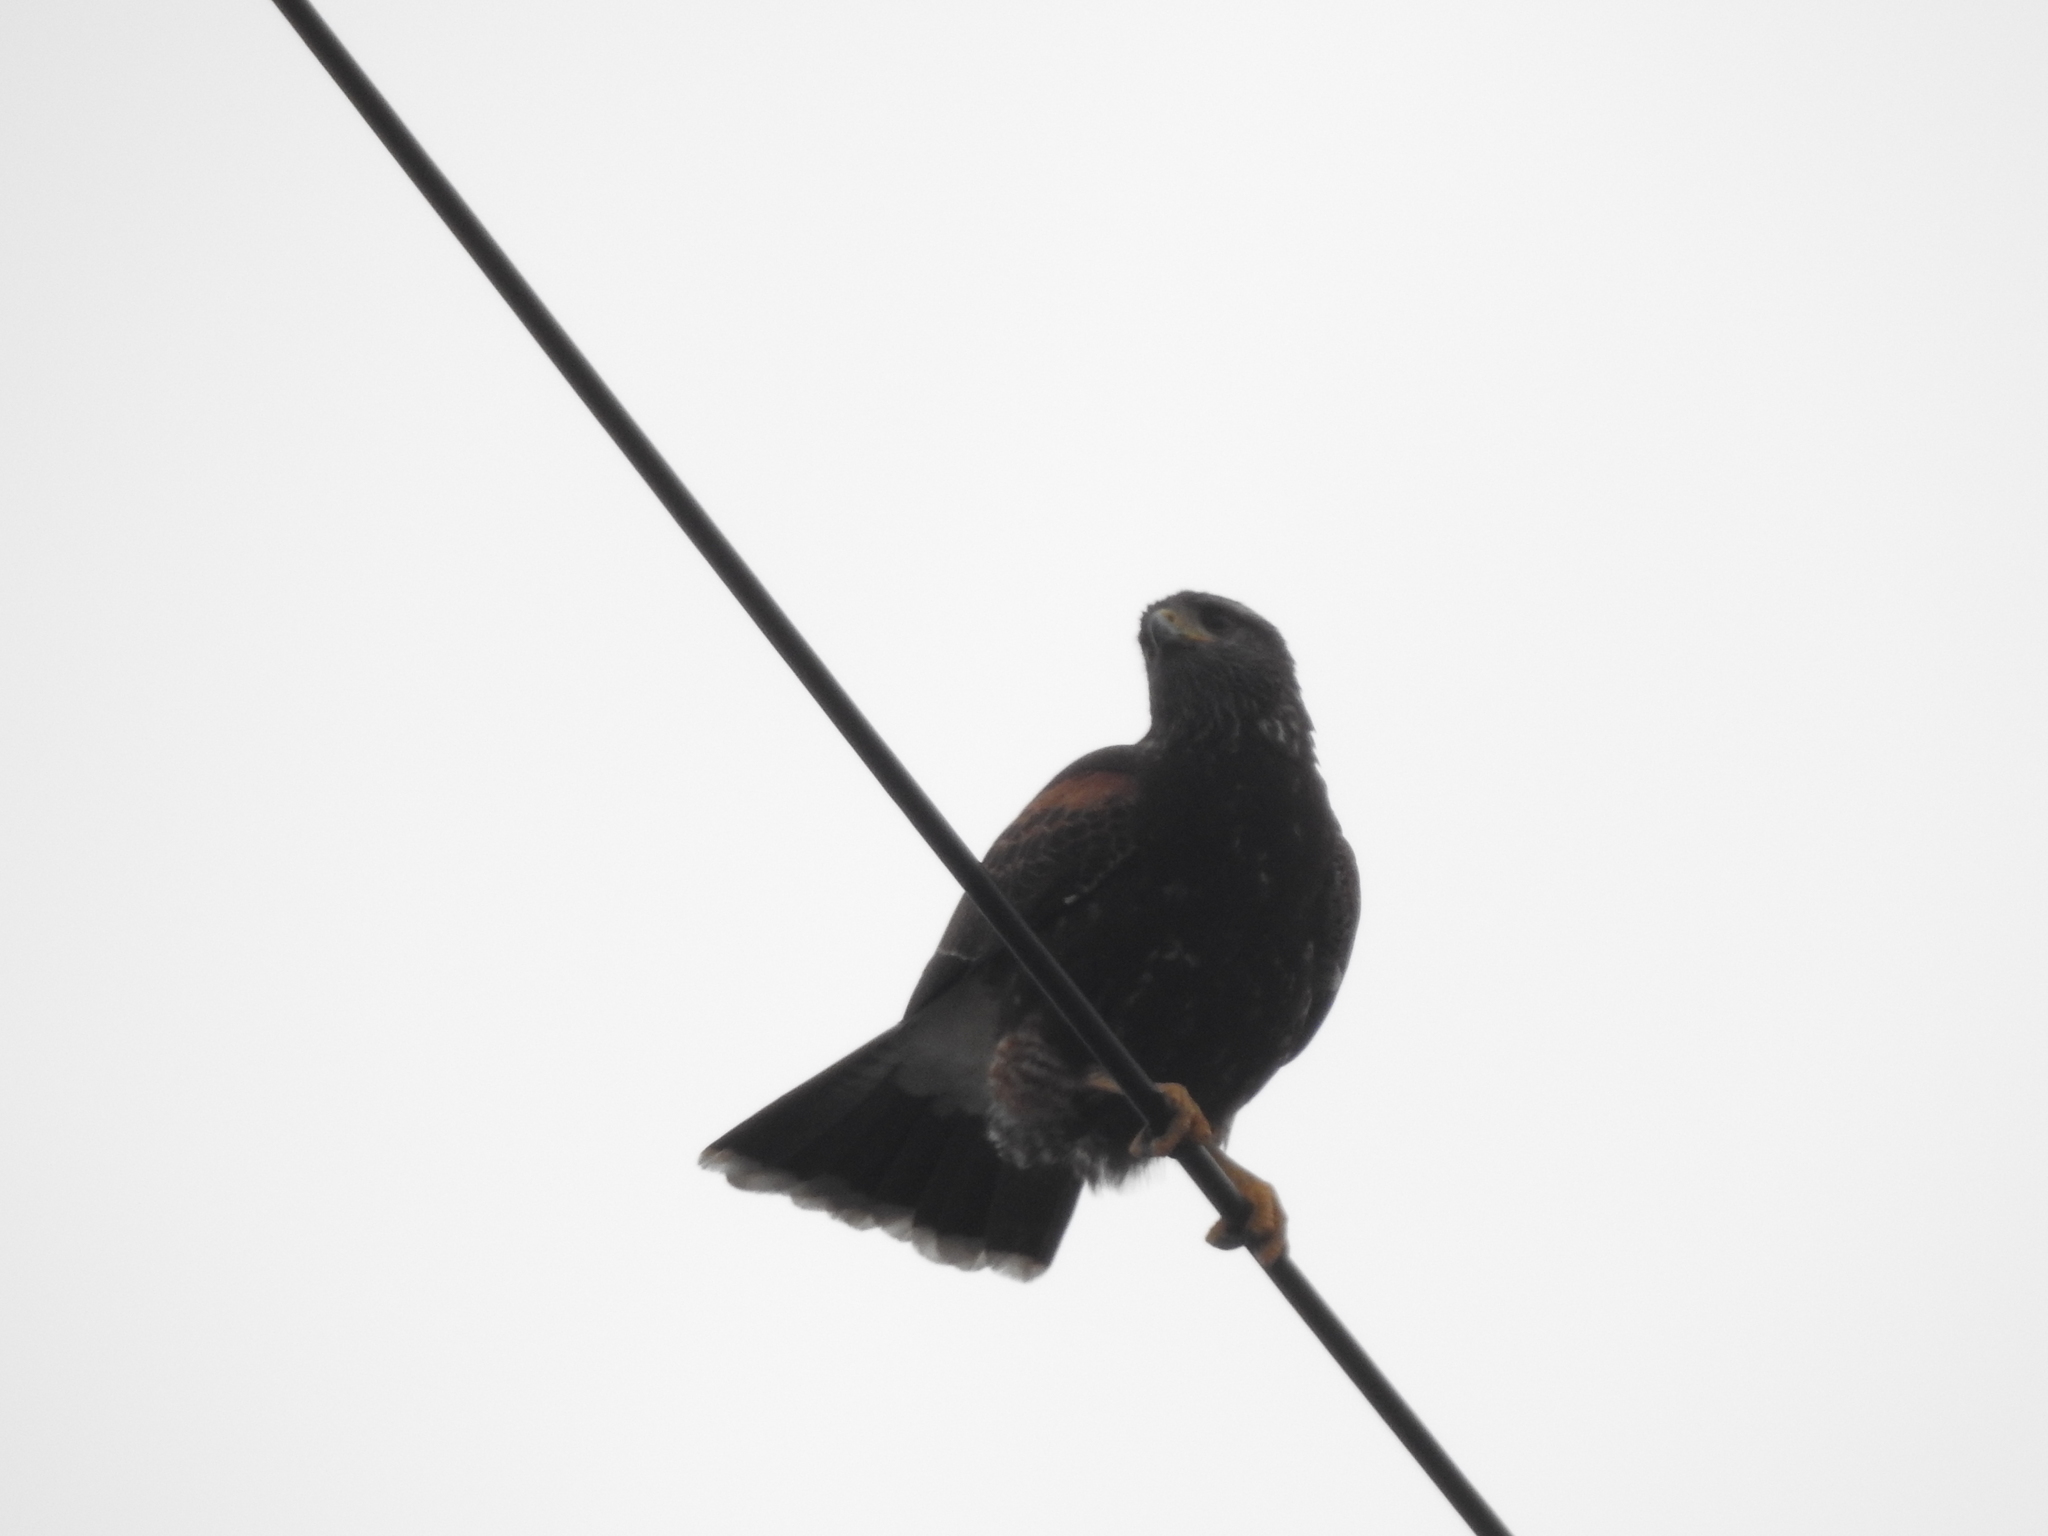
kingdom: Animalia
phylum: Chordata
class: Aves
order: Accipitriformes
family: Accipitridae
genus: Parabuteo
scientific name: Parabuteo unicinctus
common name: Harris's hawk
